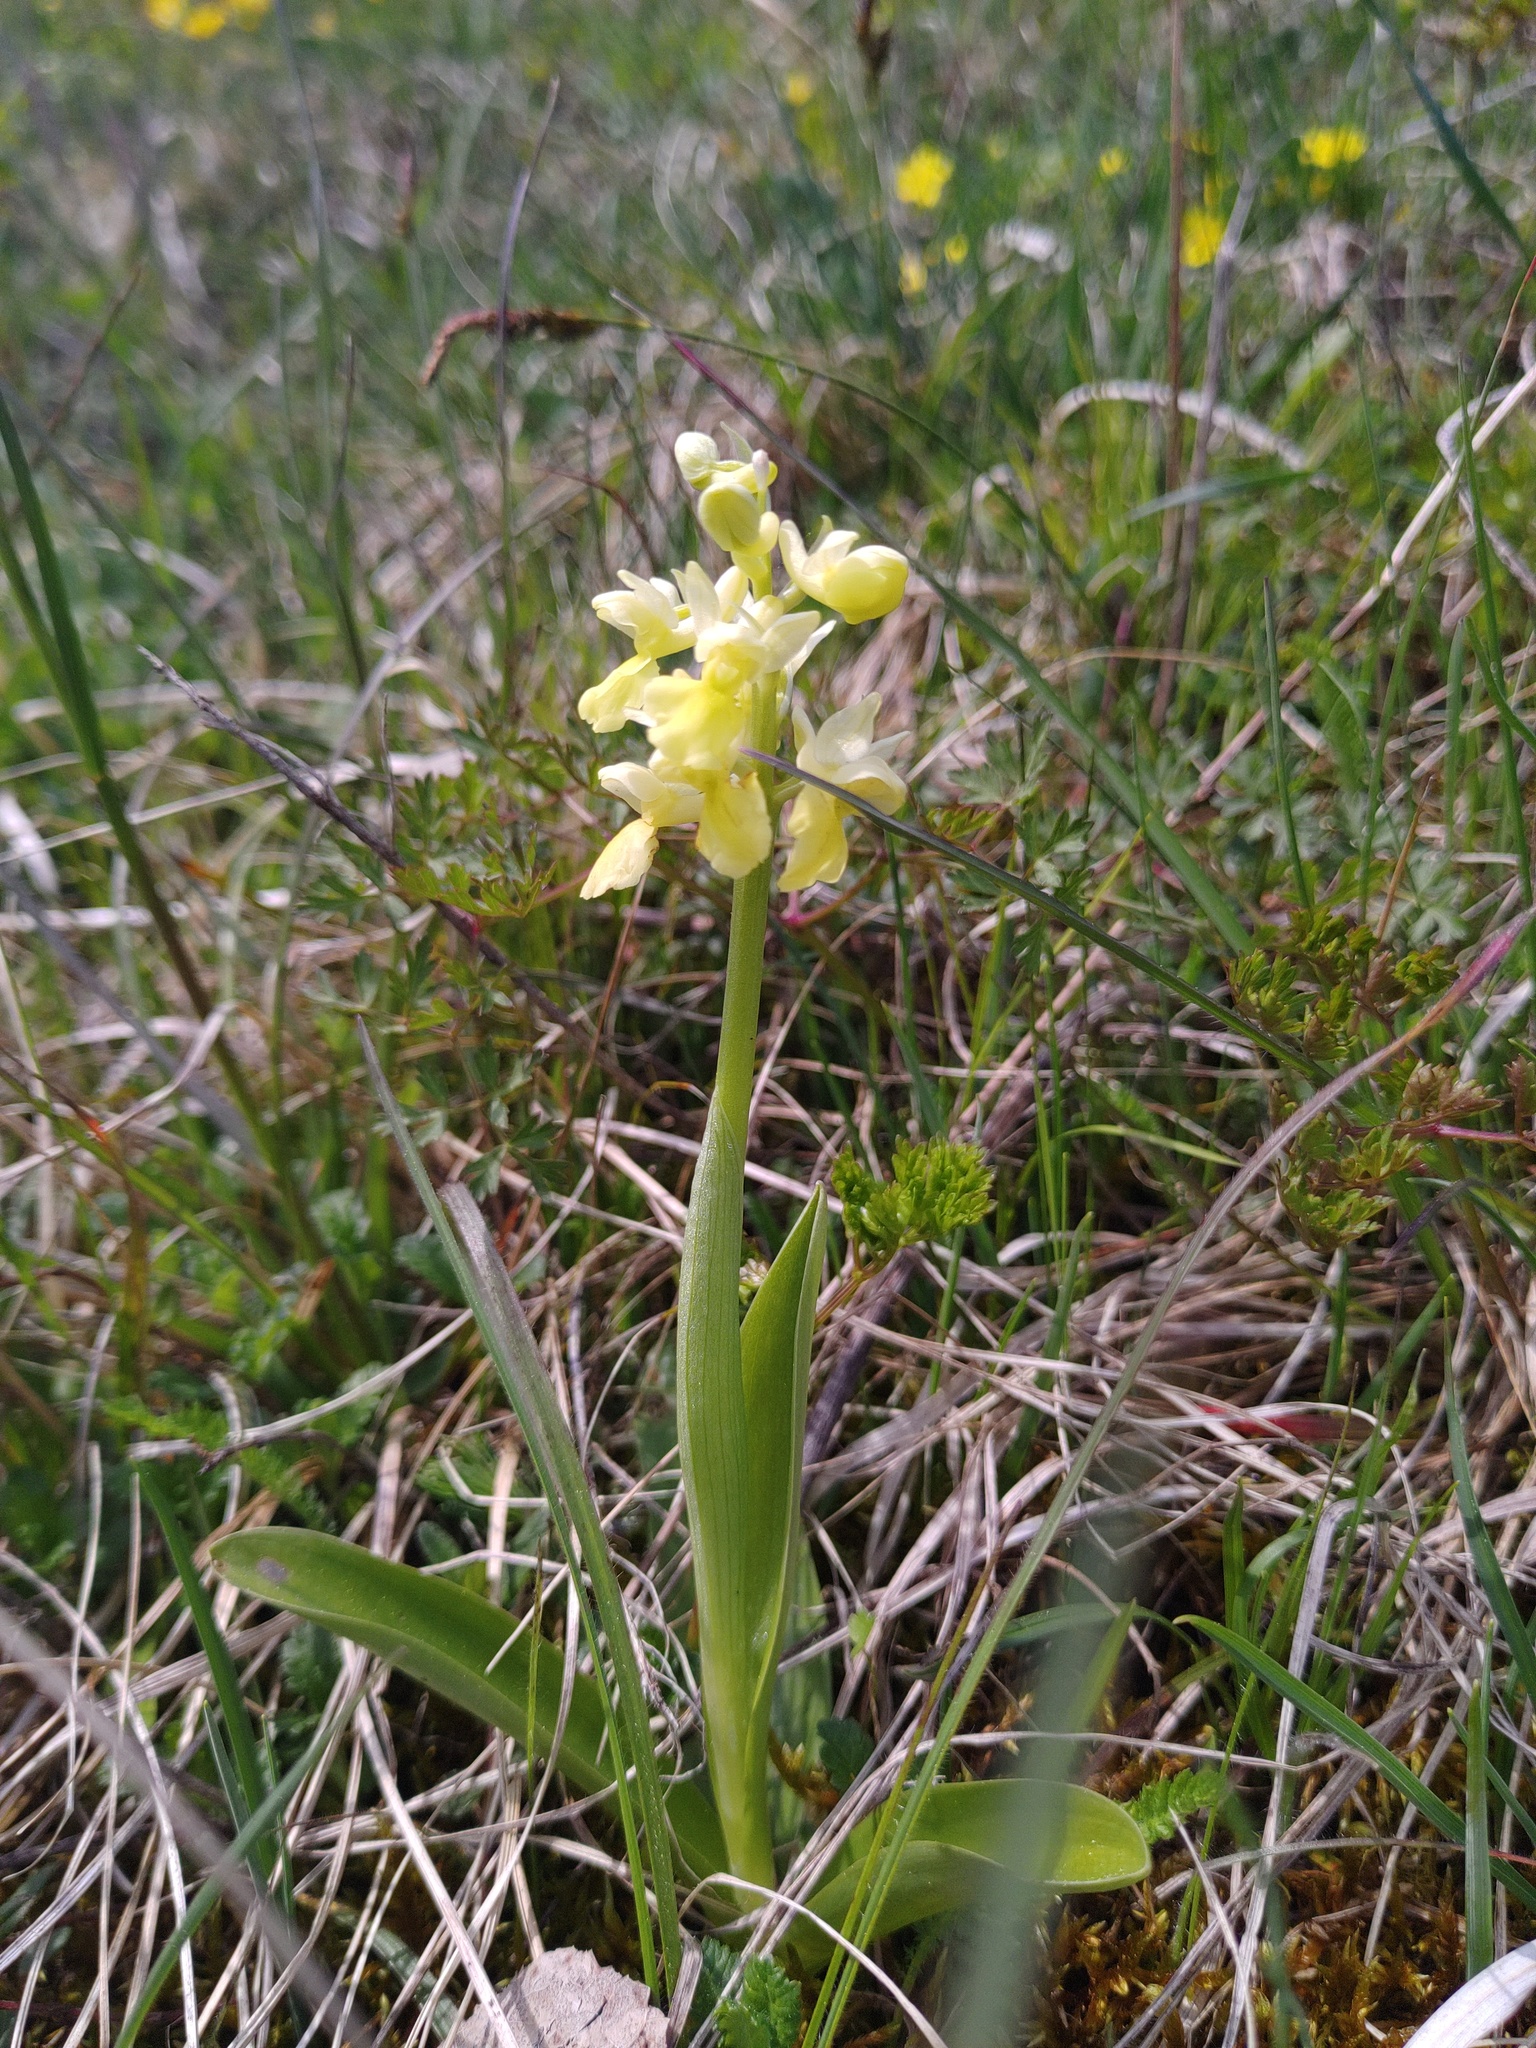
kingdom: Plantae
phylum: Tracheophyta
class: Liliopsida
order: Asparagales
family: Orchidaceae
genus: Orchis
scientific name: Orchis pallens
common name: Pale-flowered orchid
